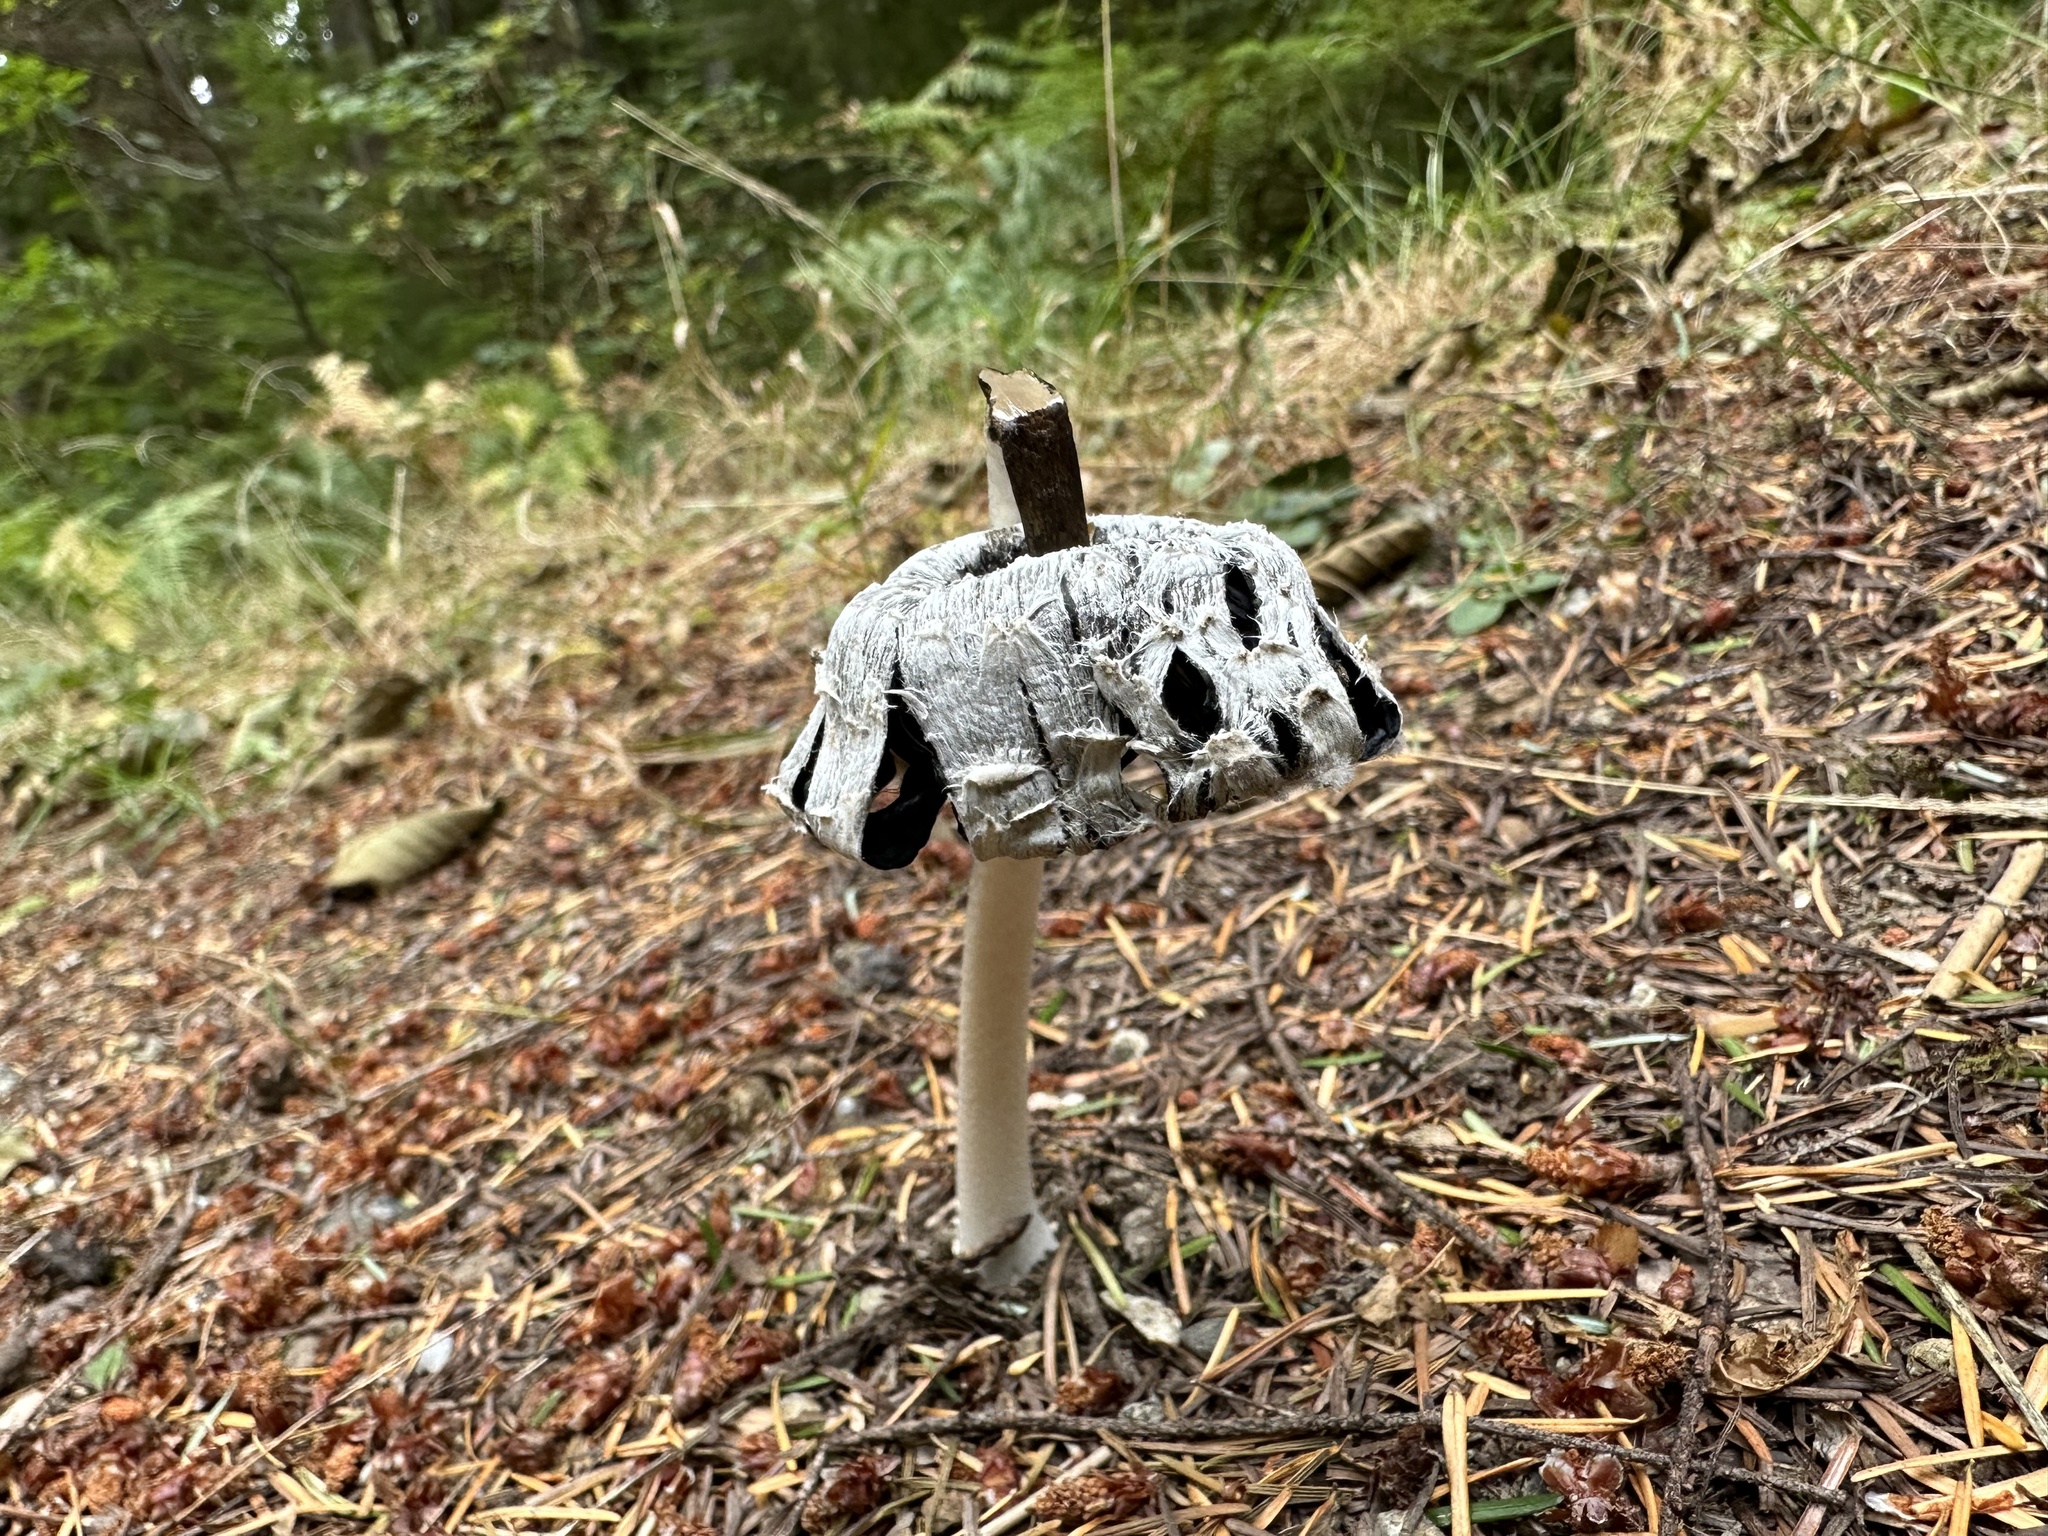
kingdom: Fungi
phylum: Basidiomycota
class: Agaricomycetes
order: Agaricales
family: Agaricaceae
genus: Coprinus
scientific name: Coprinus comatus
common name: Lawyer's wig
